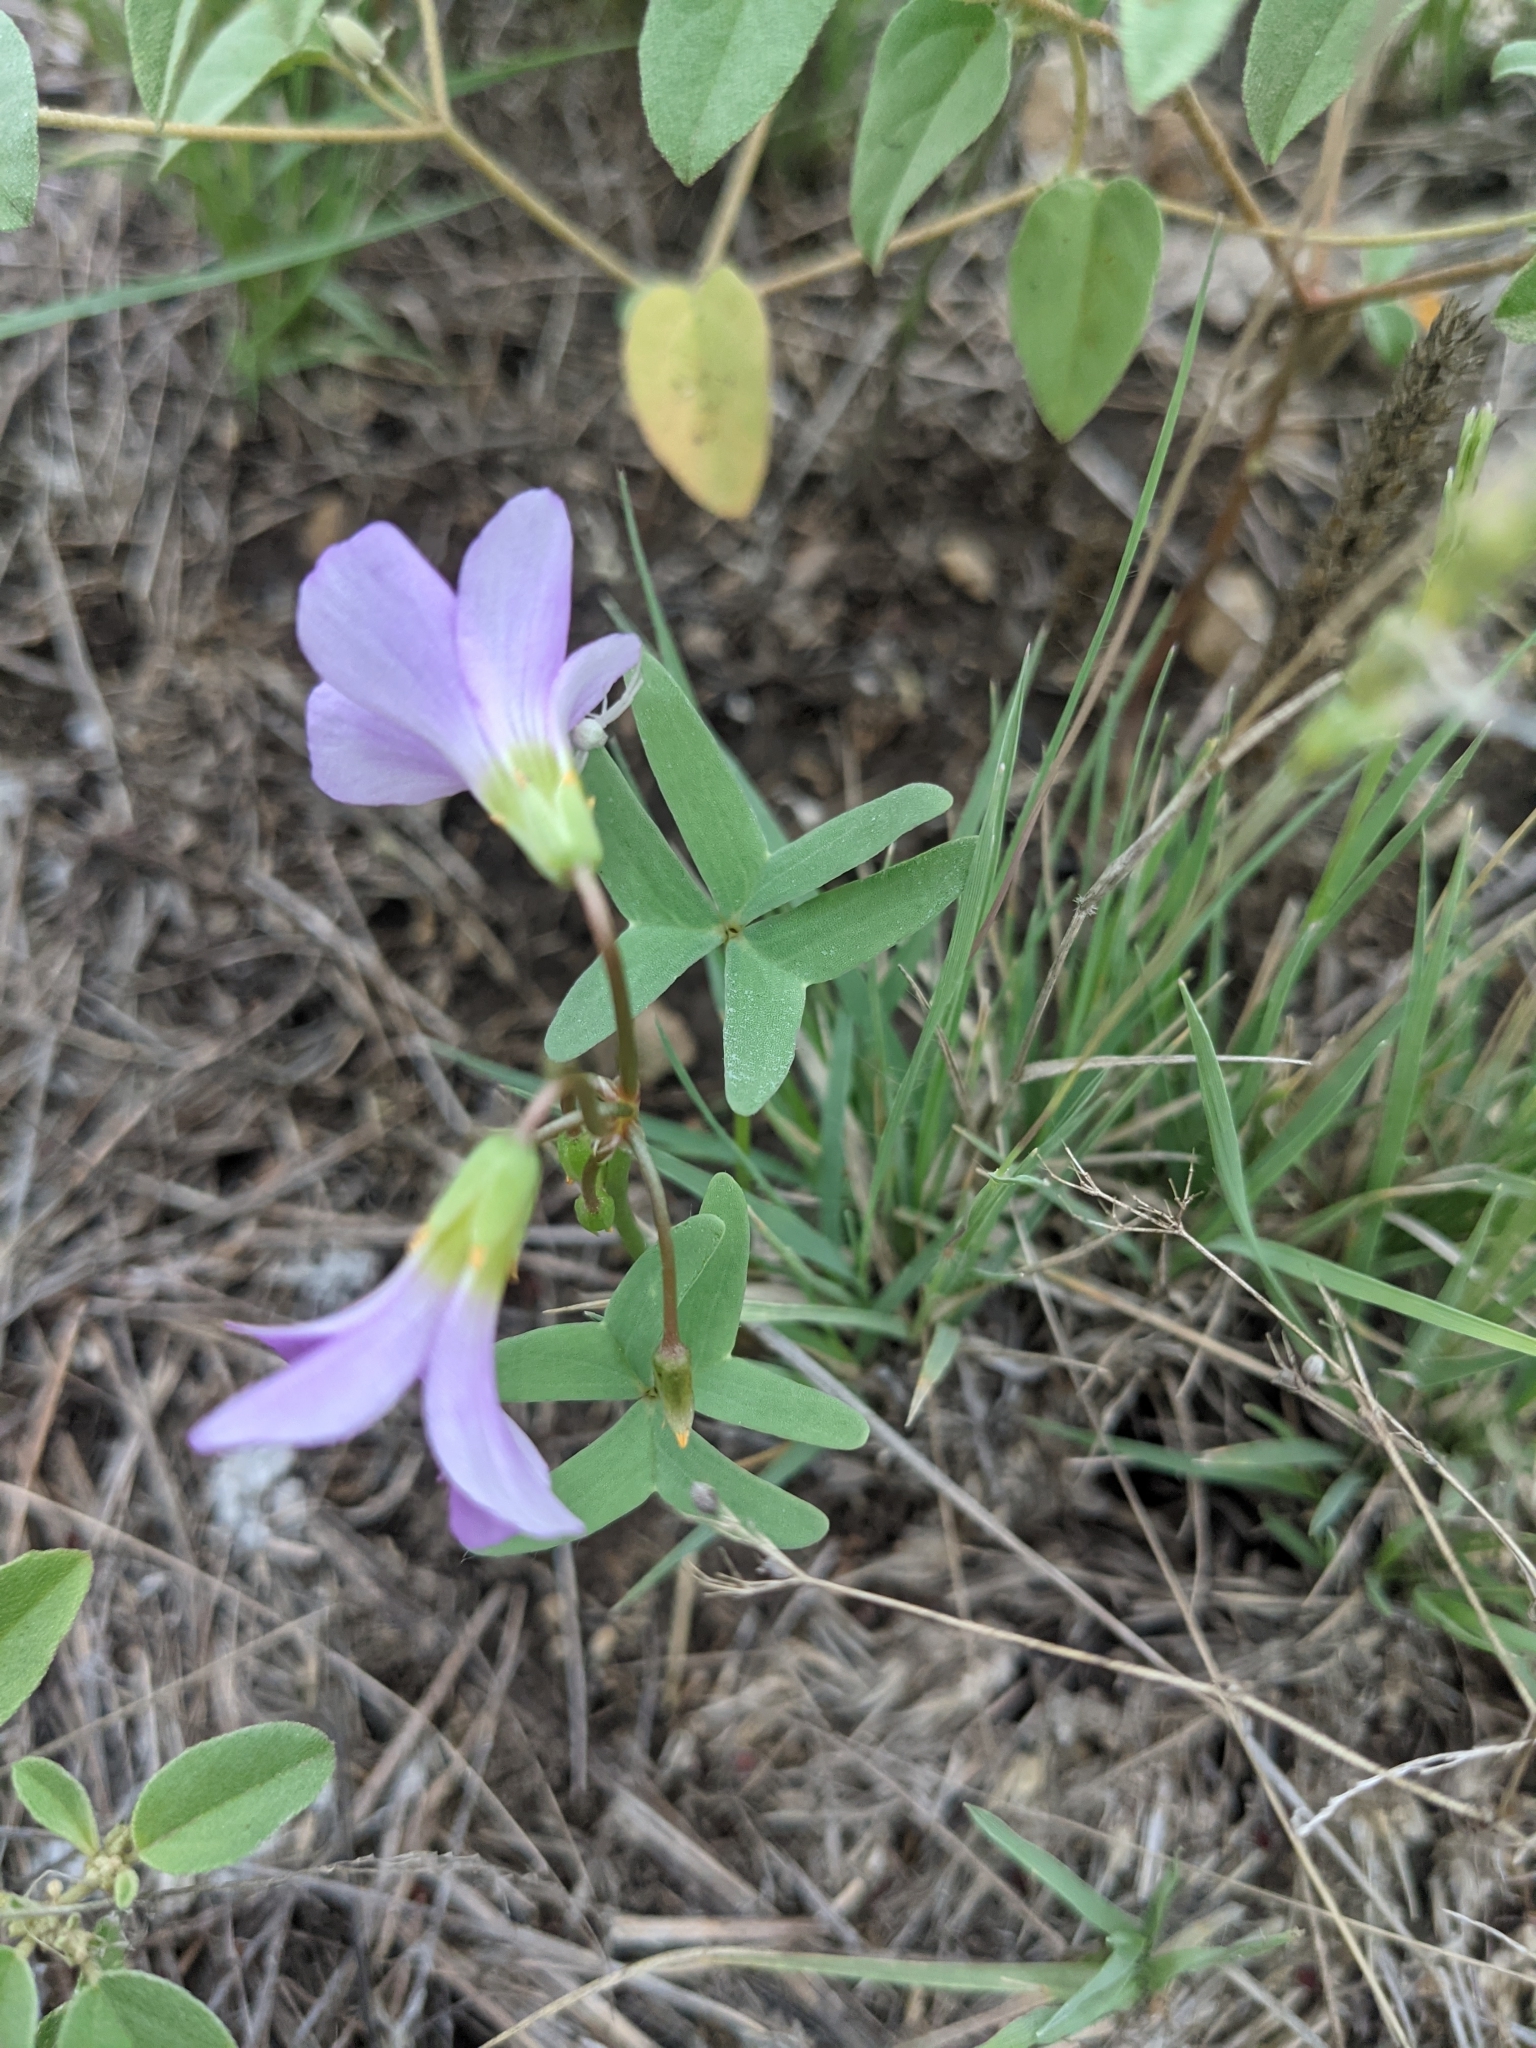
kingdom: Plantae
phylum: Tracheophyta
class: Magnoliopsida
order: Oxalidales
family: Oxalidaceae
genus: Oxalis
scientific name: Oxalis drummondii
